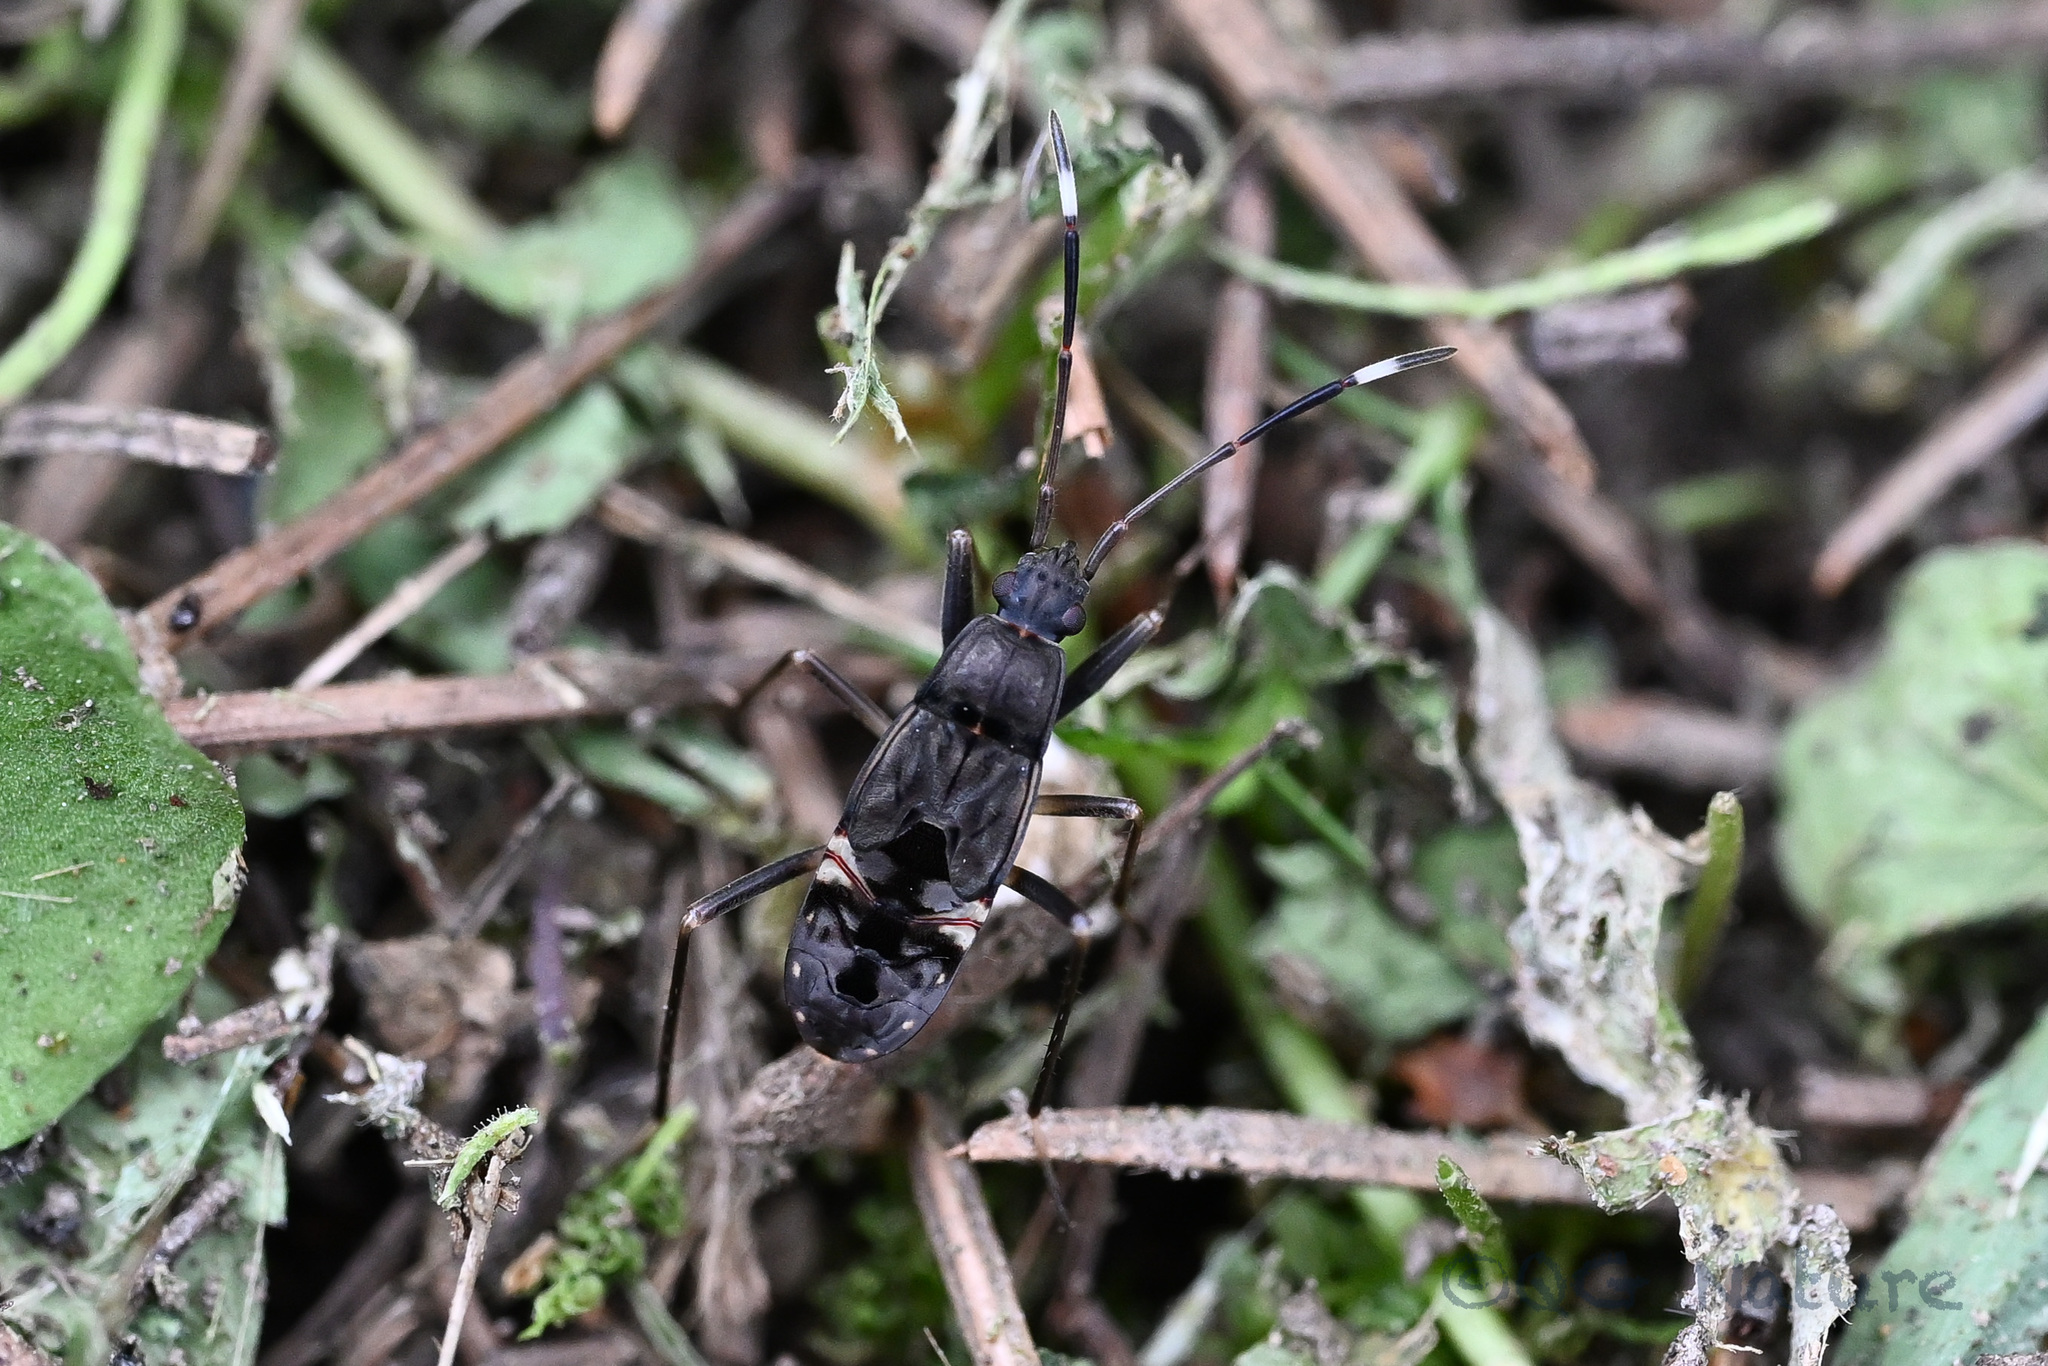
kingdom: Animalia
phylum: Arthropoda
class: Insecta
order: Hemiptera
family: Rhyparochromidae
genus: Metochus
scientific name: Metochus abbreviatus
